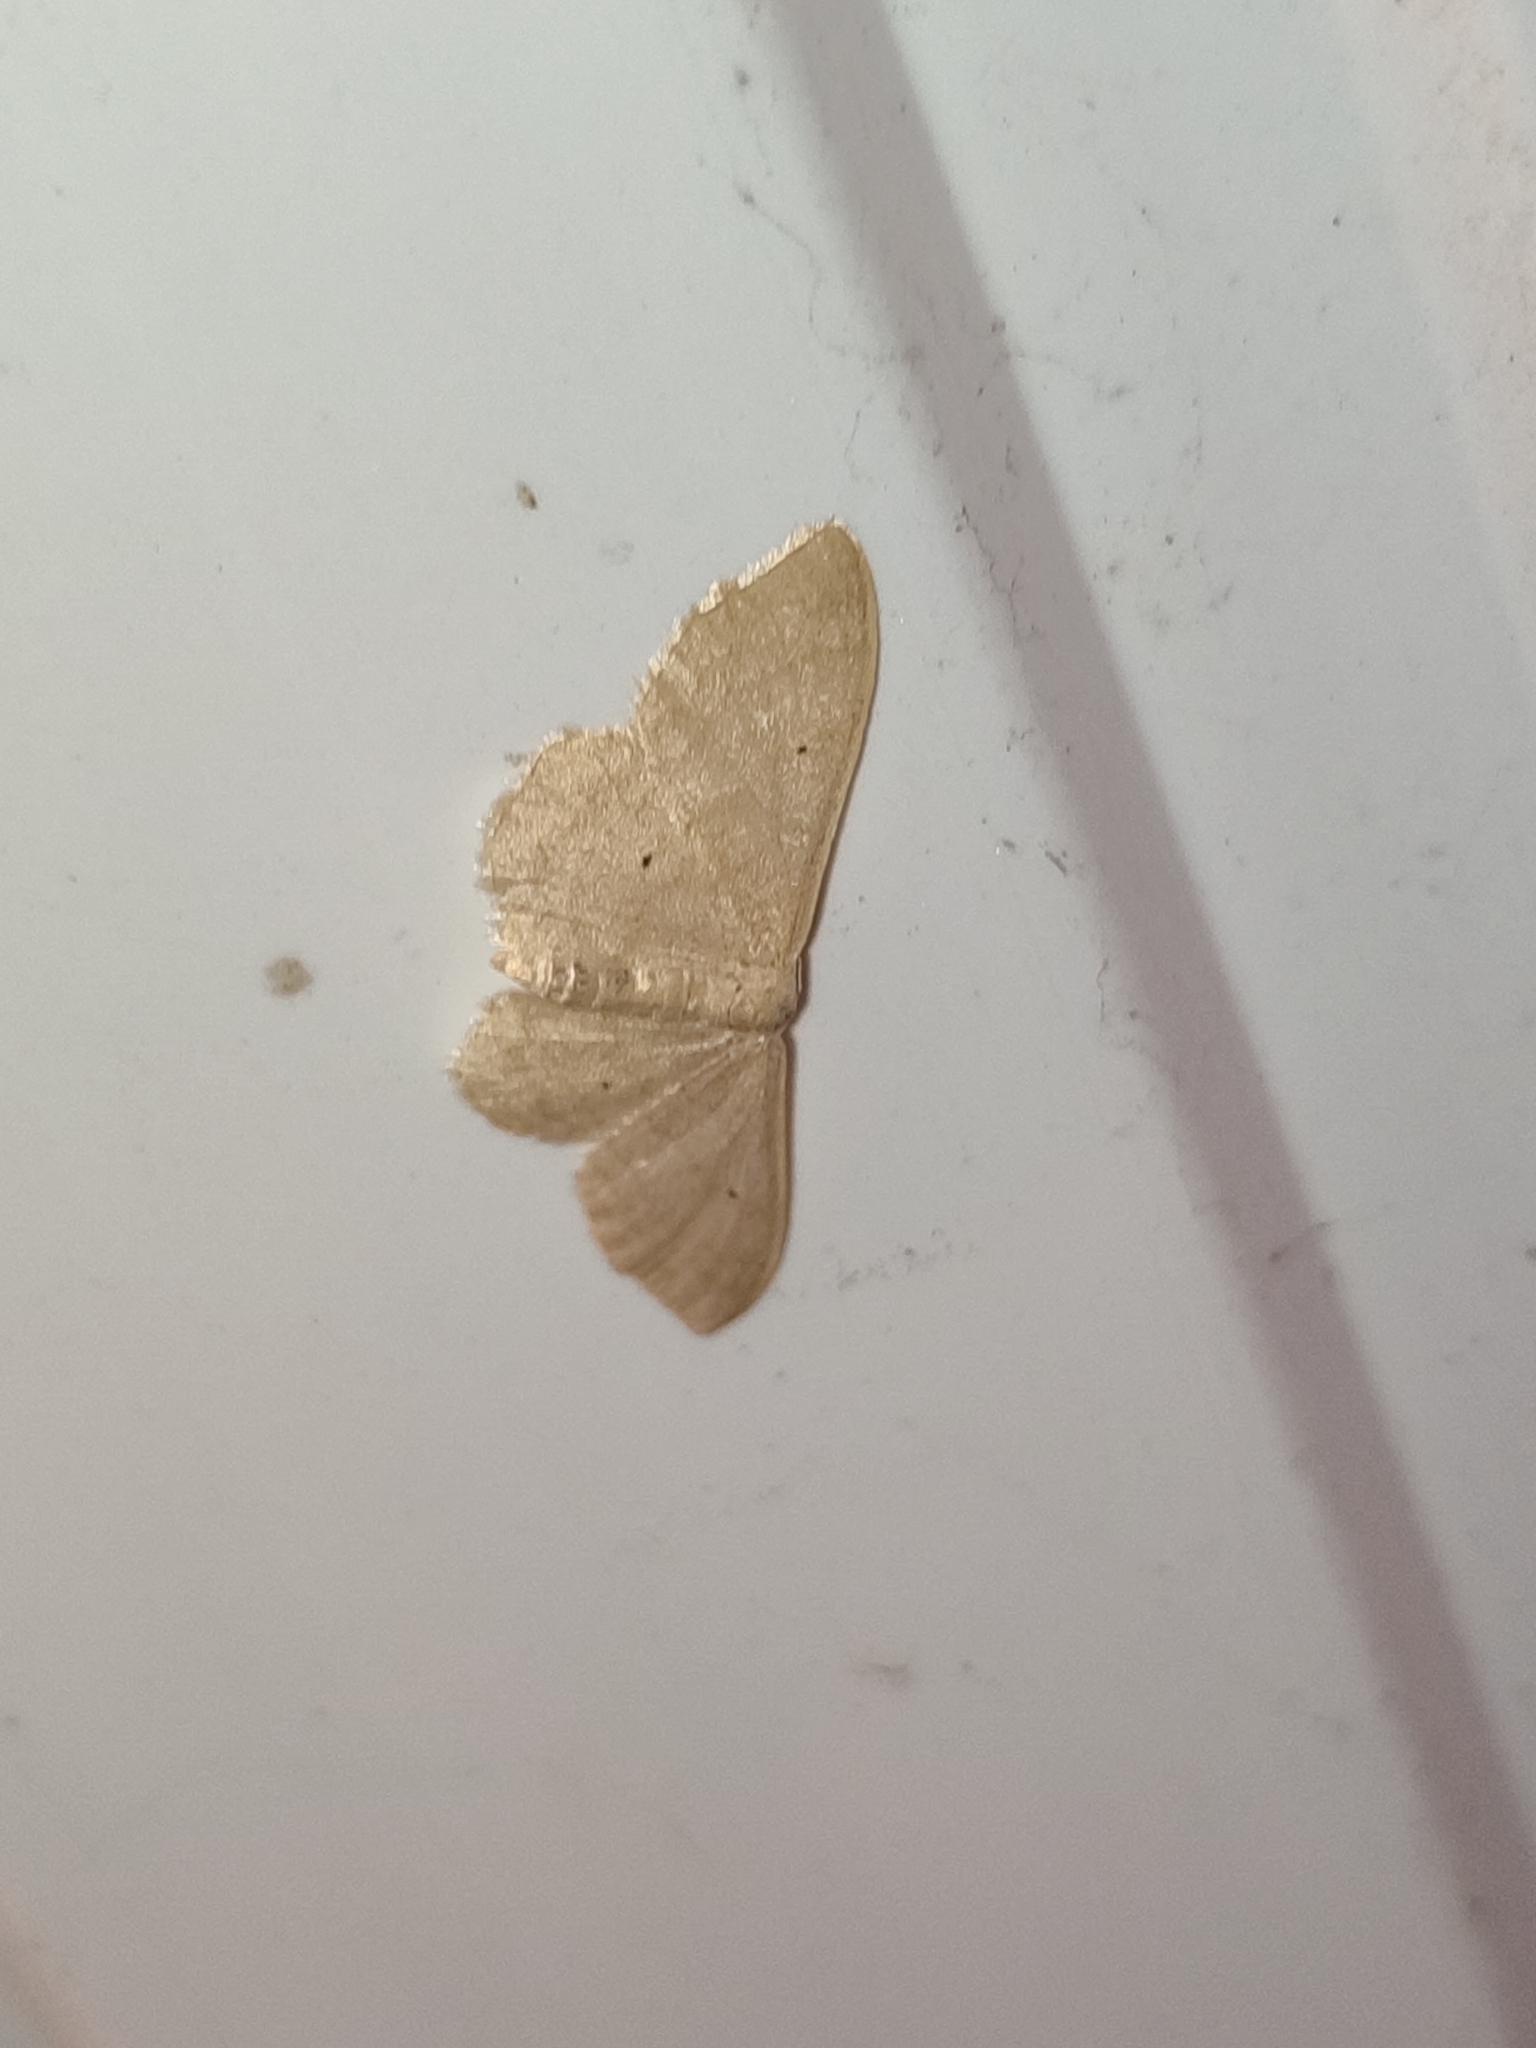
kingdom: Animalia
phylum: Arthropoda
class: Insecta
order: Lepidoptera
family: Geometridae
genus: Idaea
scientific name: Idaea straminata
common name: Plain wave
